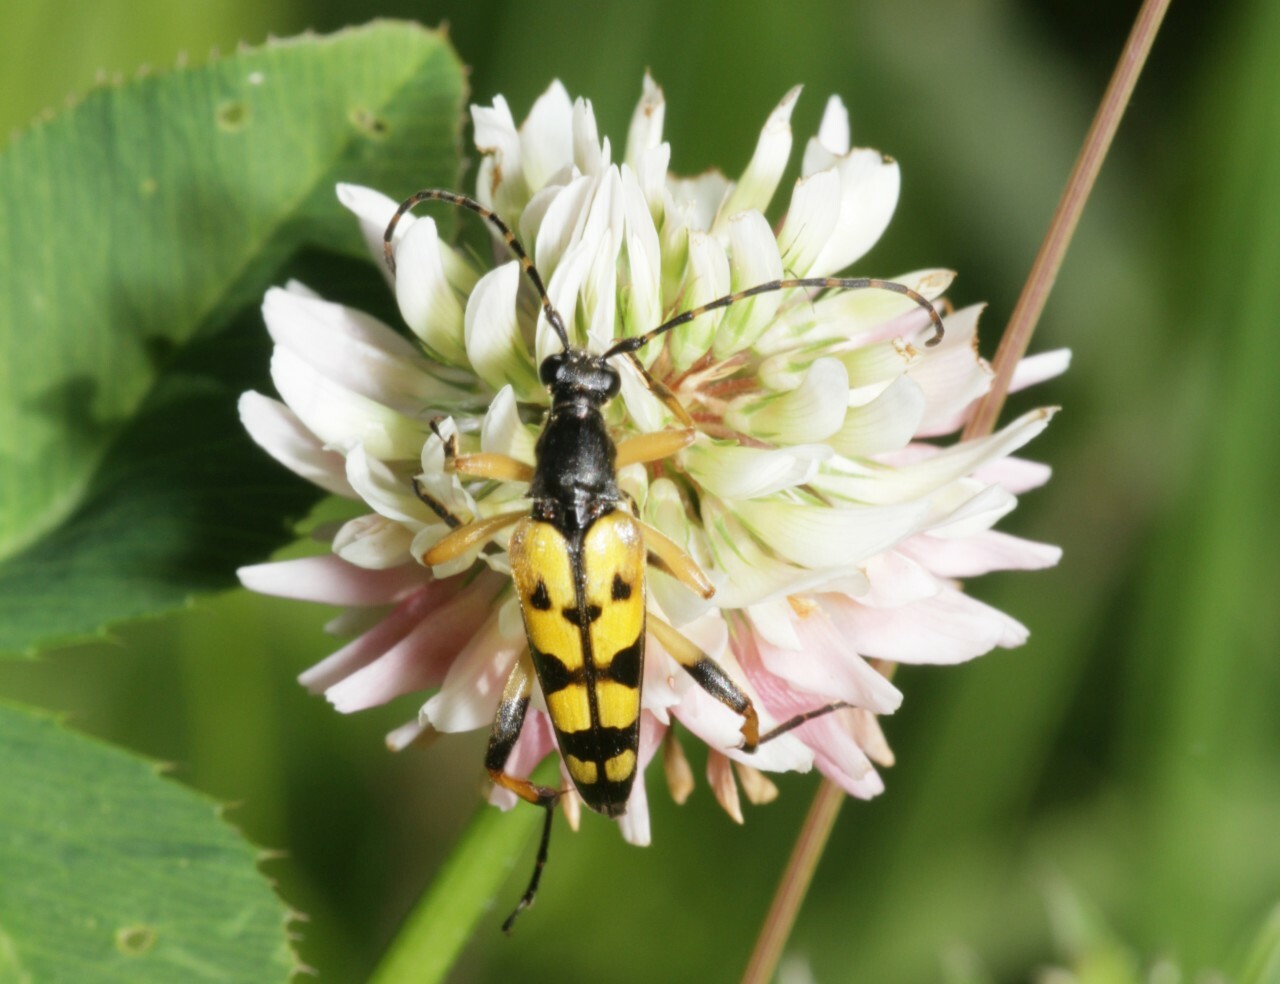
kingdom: Animalia
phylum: Arthropoda
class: Insecta
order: Coleoptera
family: Cerambycidae
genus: Rutpela
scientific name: Rutpela maculata
